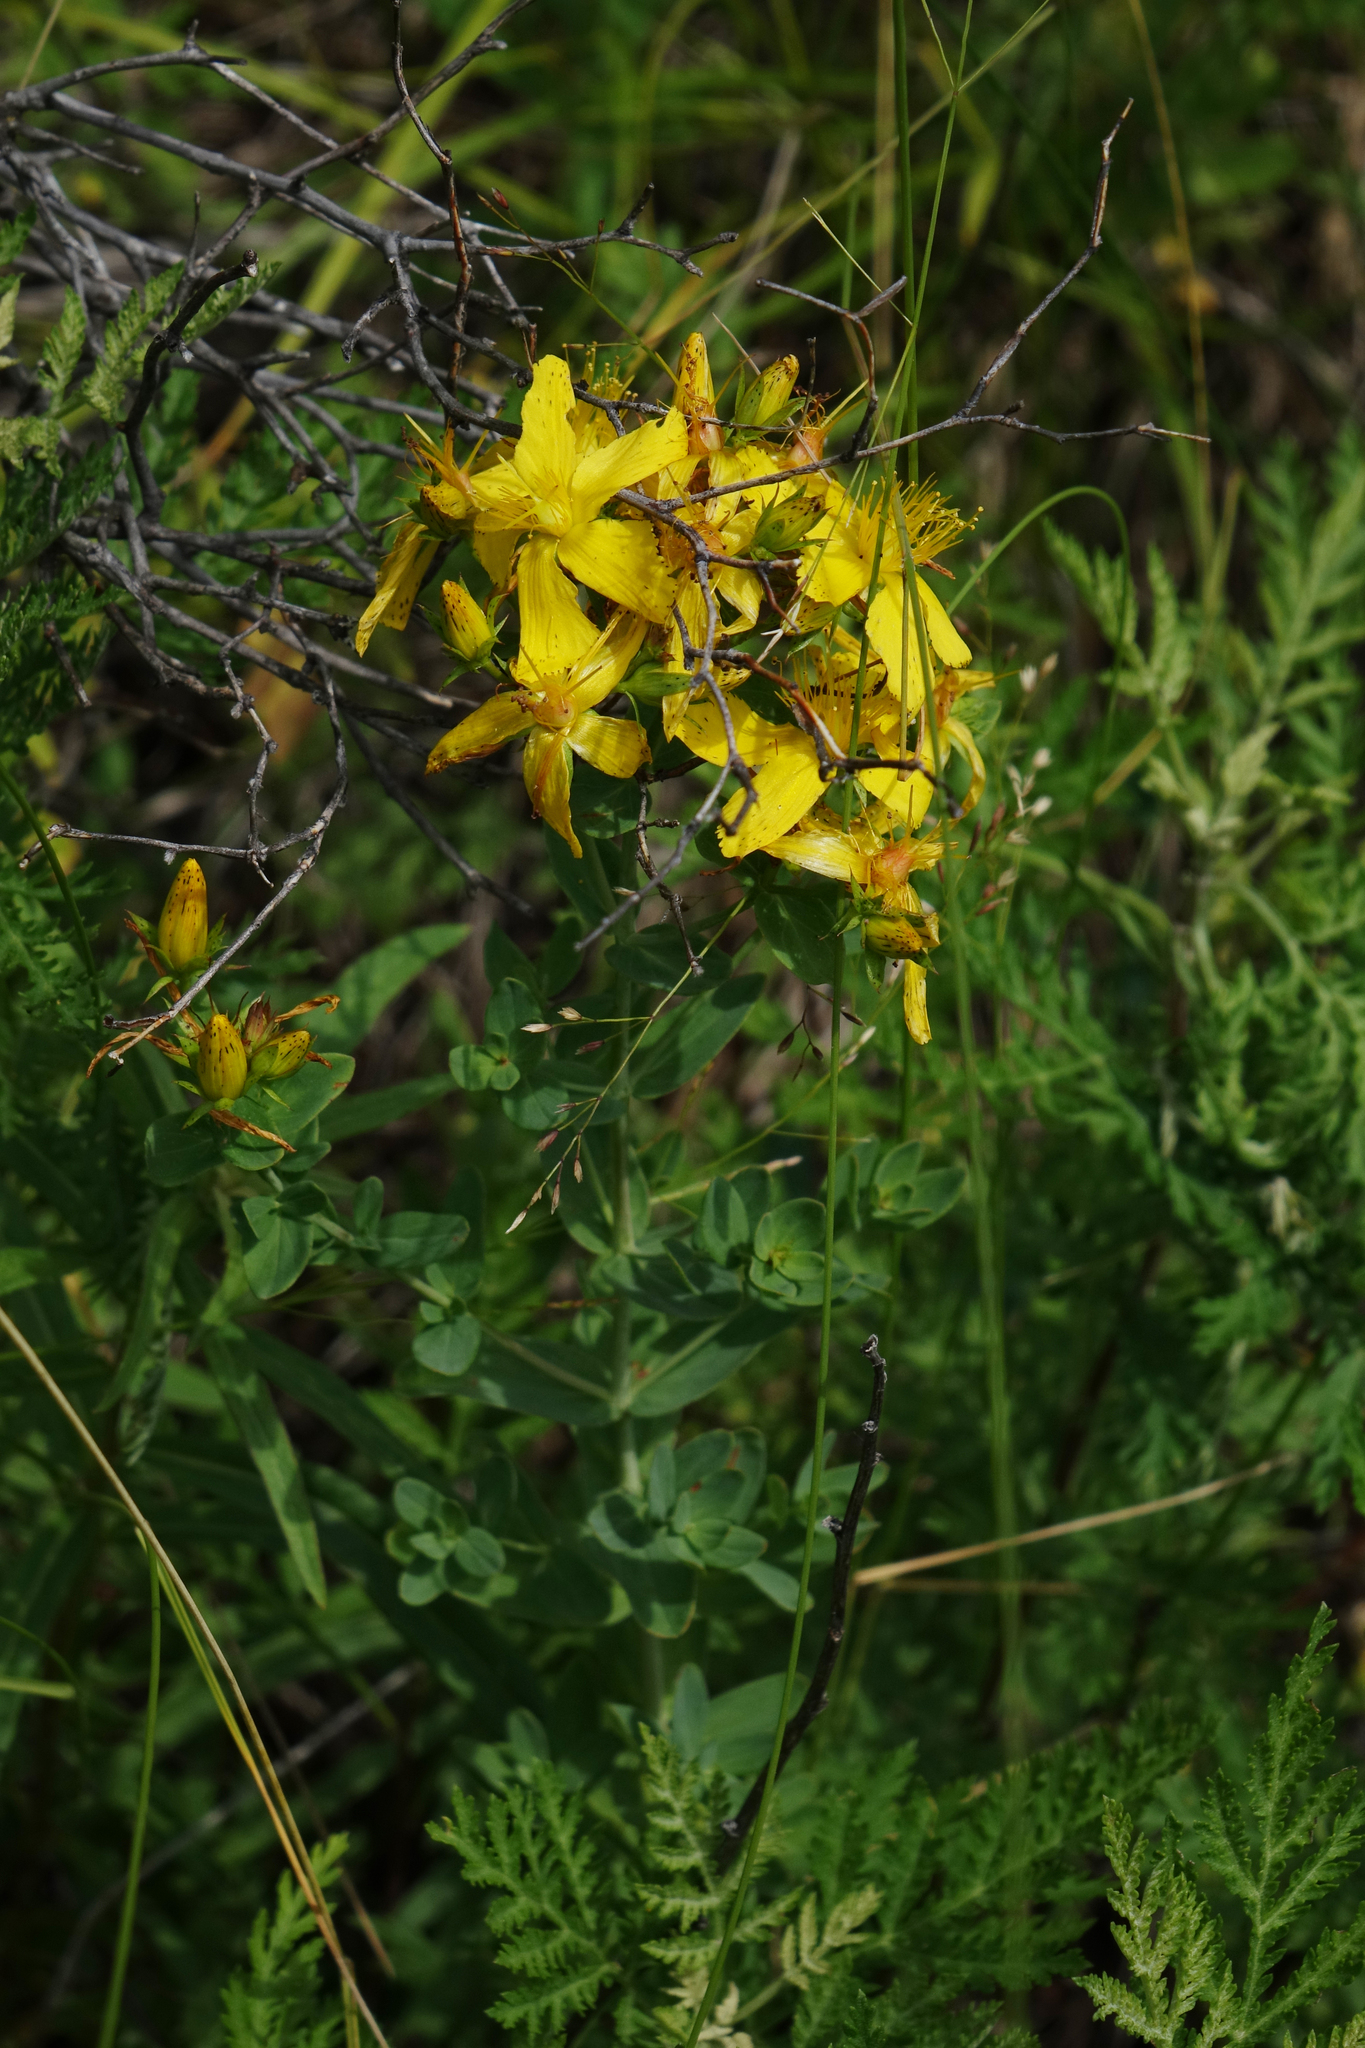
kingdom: Plantae
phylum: Tracheophyta
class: Magnoliopsida
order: Malpighiales
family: Hypericaceae
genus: Hypericum
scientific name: Hypericum perforatum
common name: Common st. johnswort
